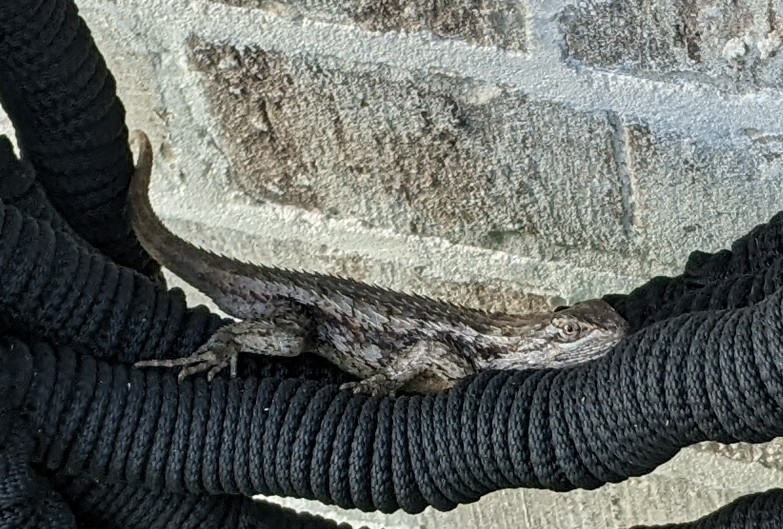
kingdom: Animalia
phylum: Chordata
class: Squamata
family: Phrynosomatidae
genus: Sceloporus
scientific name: Sceloporus olivaceus
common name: Texas spiny lizard
